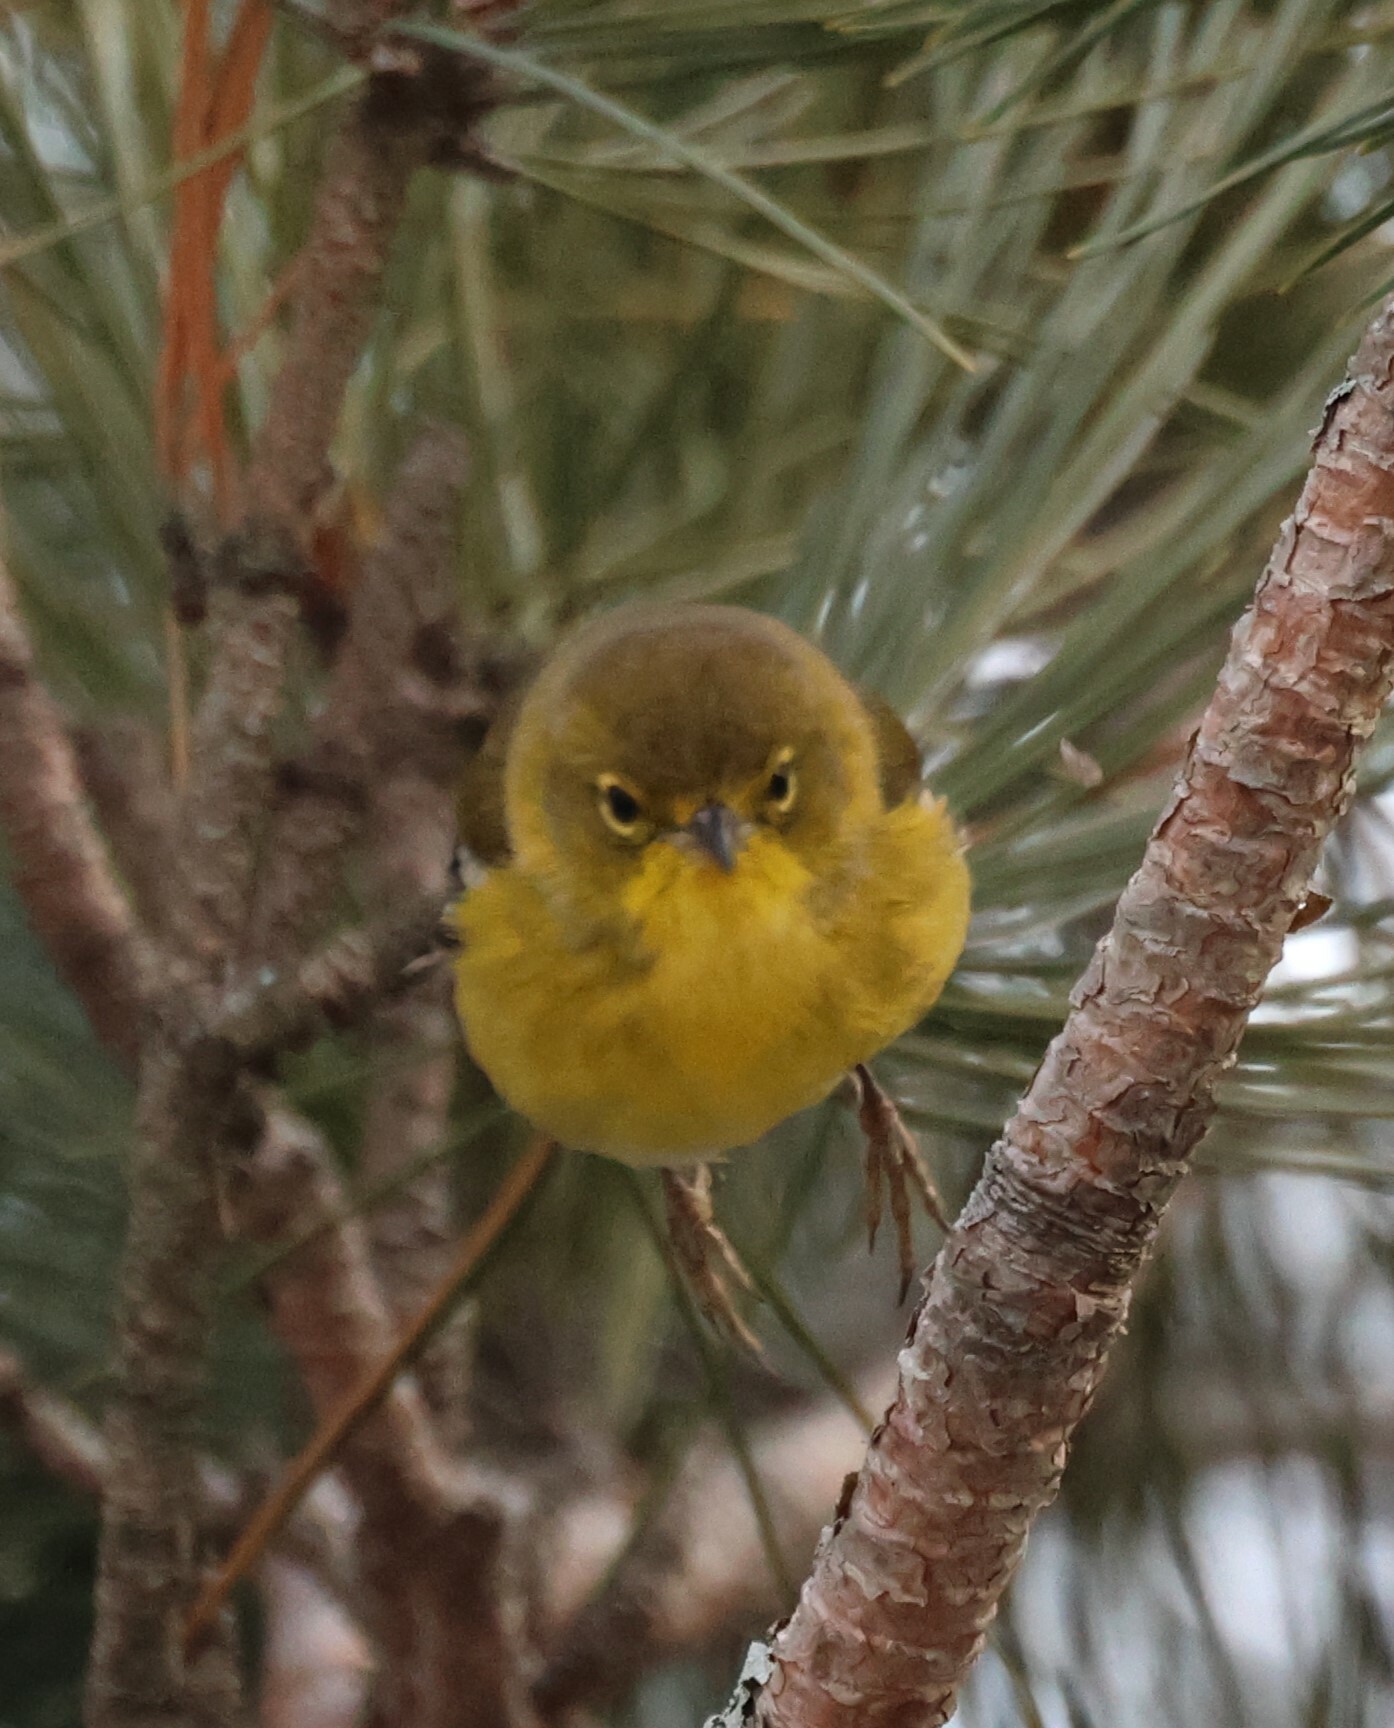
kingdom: Animalia
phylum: Chordata
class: Aves
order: Passeriformes
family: Parulidae
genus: Setophaga
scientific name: Setophaga pinus
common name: Pine warbler
